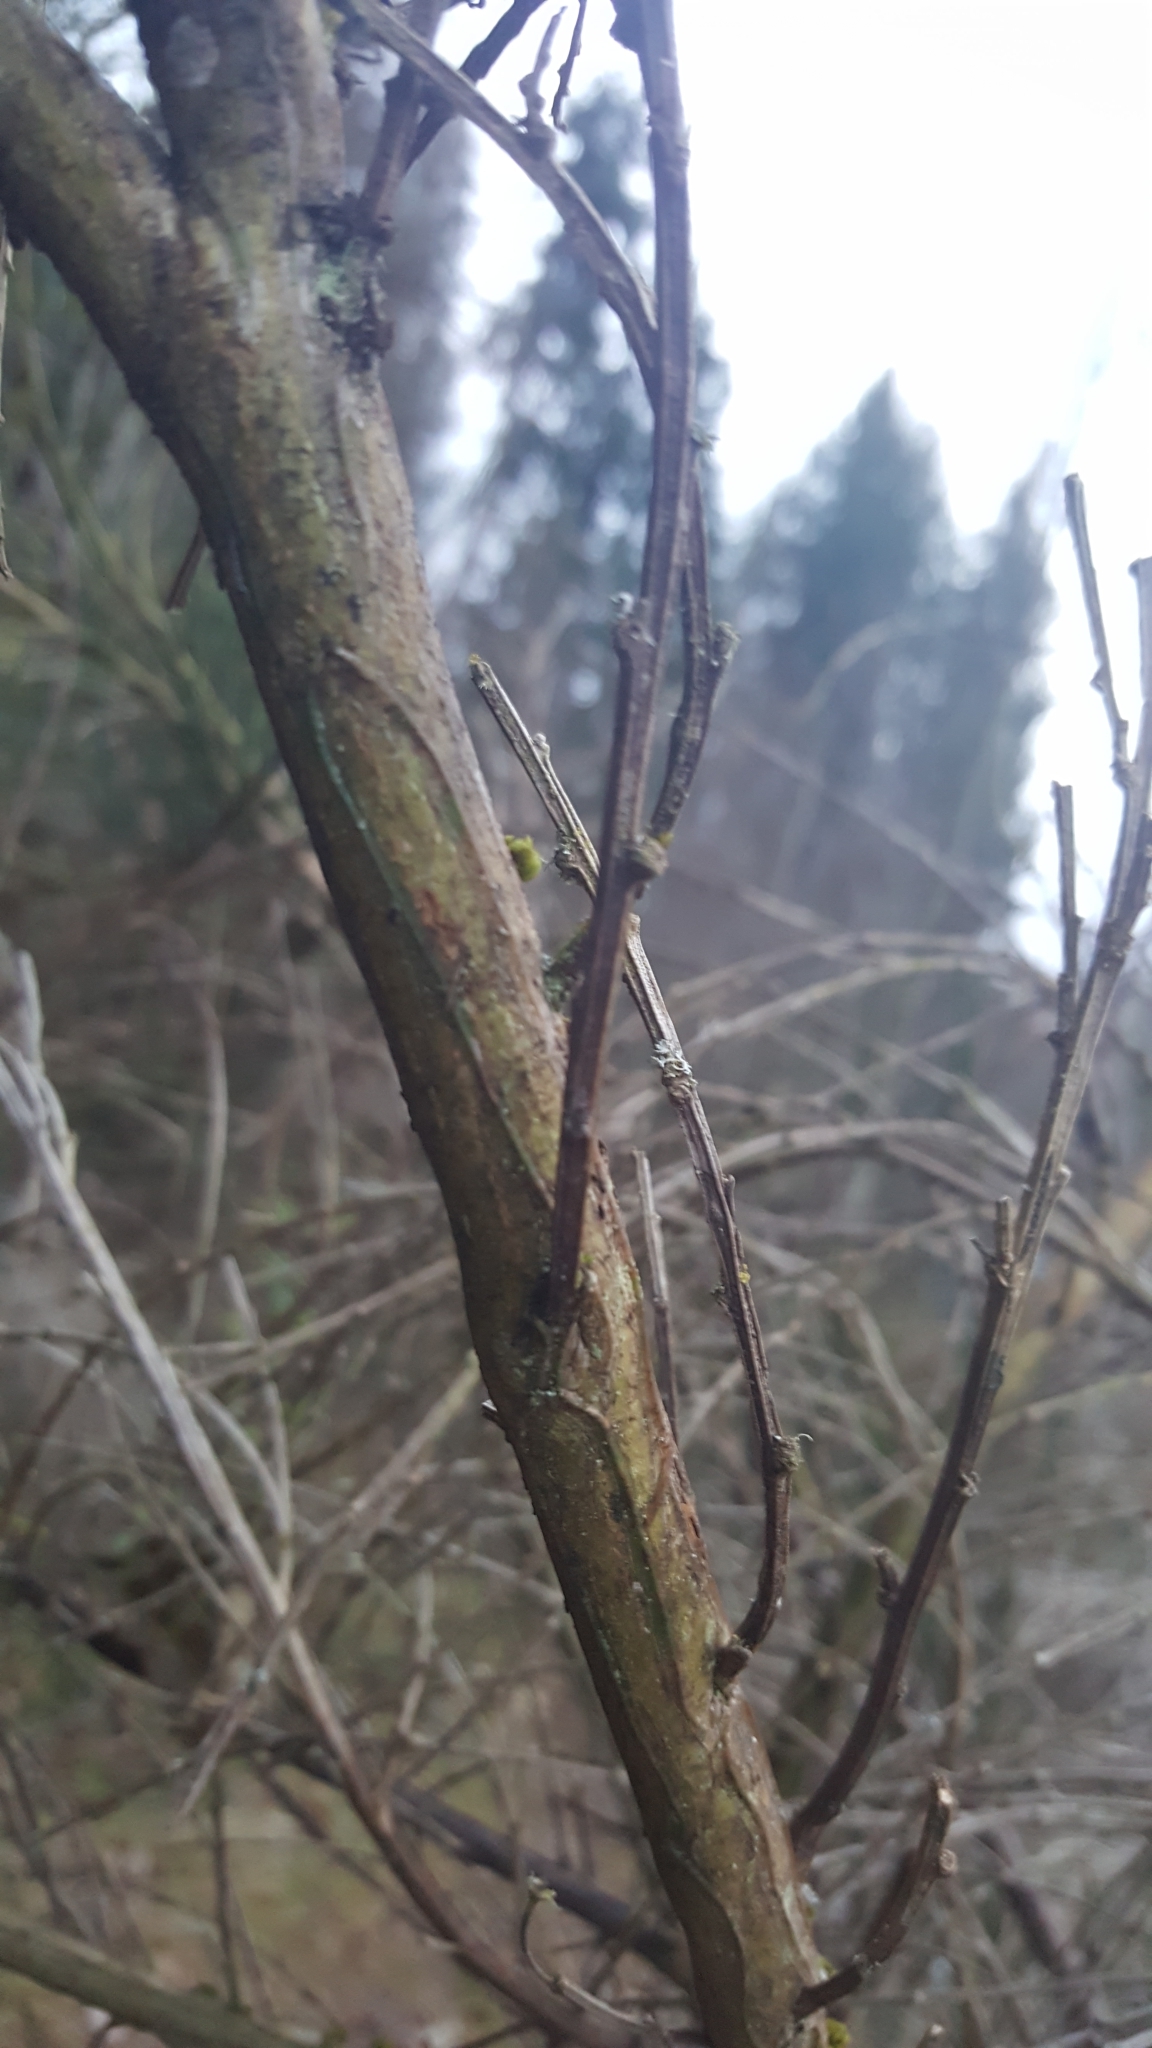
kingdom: Plantae
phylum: Tracheophyta
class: Magnoliopsida
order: Fabales
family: Fabaceae
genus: Cytisus
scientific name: Cytisus scoparius
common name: Scotch broom
